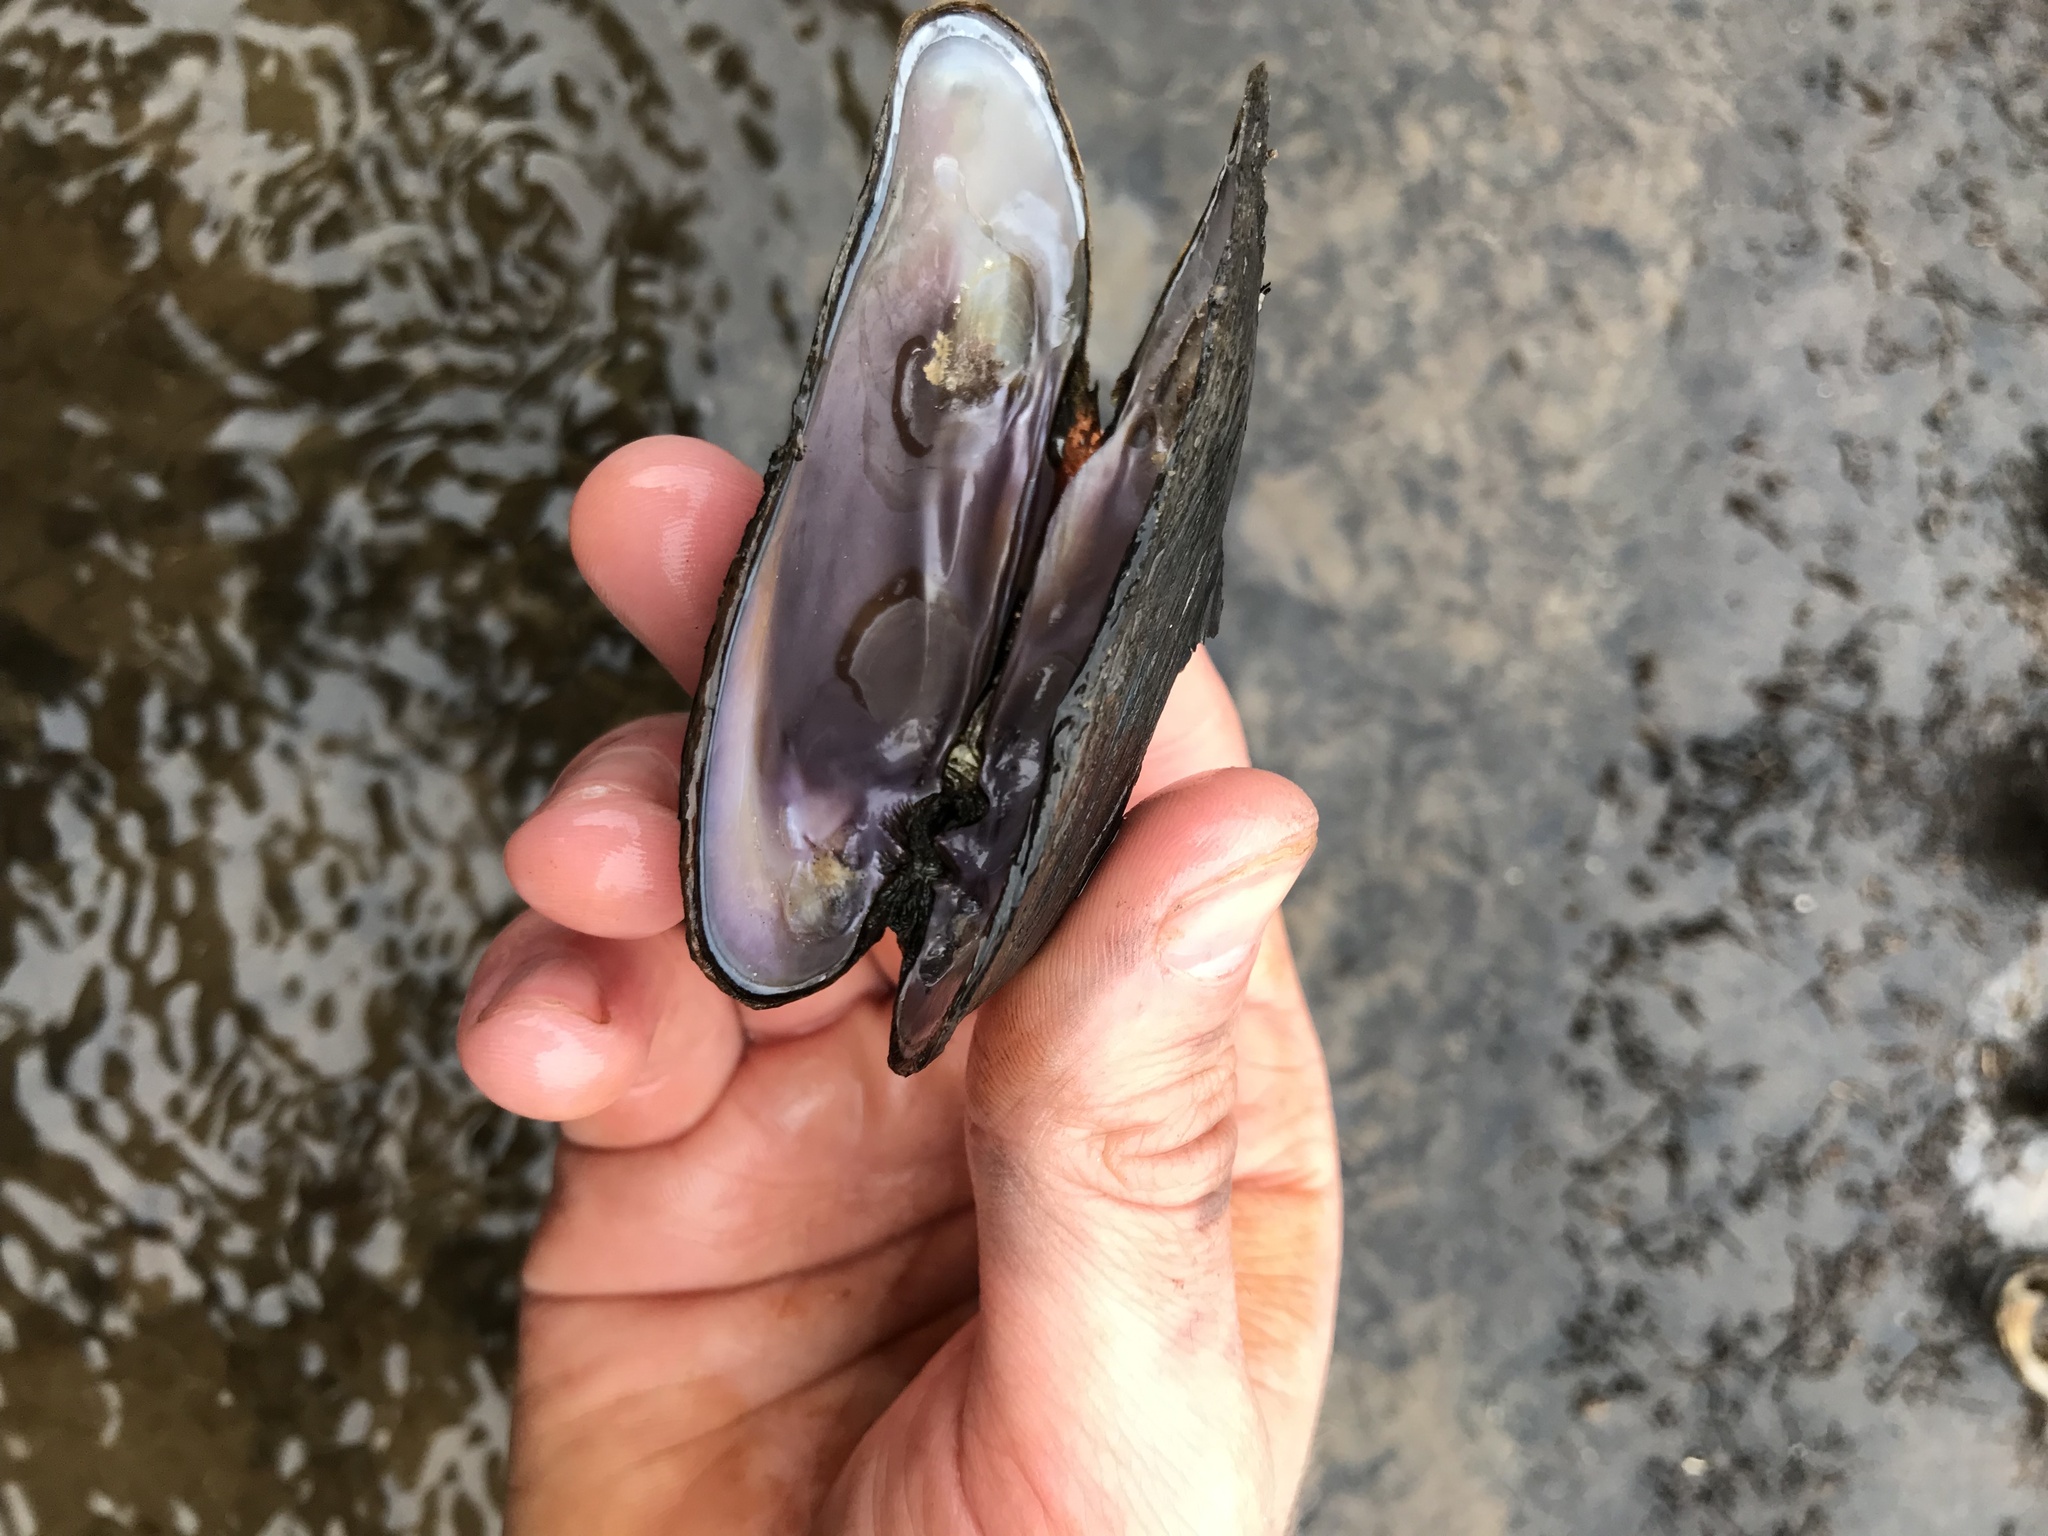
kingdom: Animalia
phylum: Mollusca
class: Bivalvia
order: Unionida
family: Unionidae
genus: Eurynia
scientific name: Eurynia dilatata
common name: Spike
